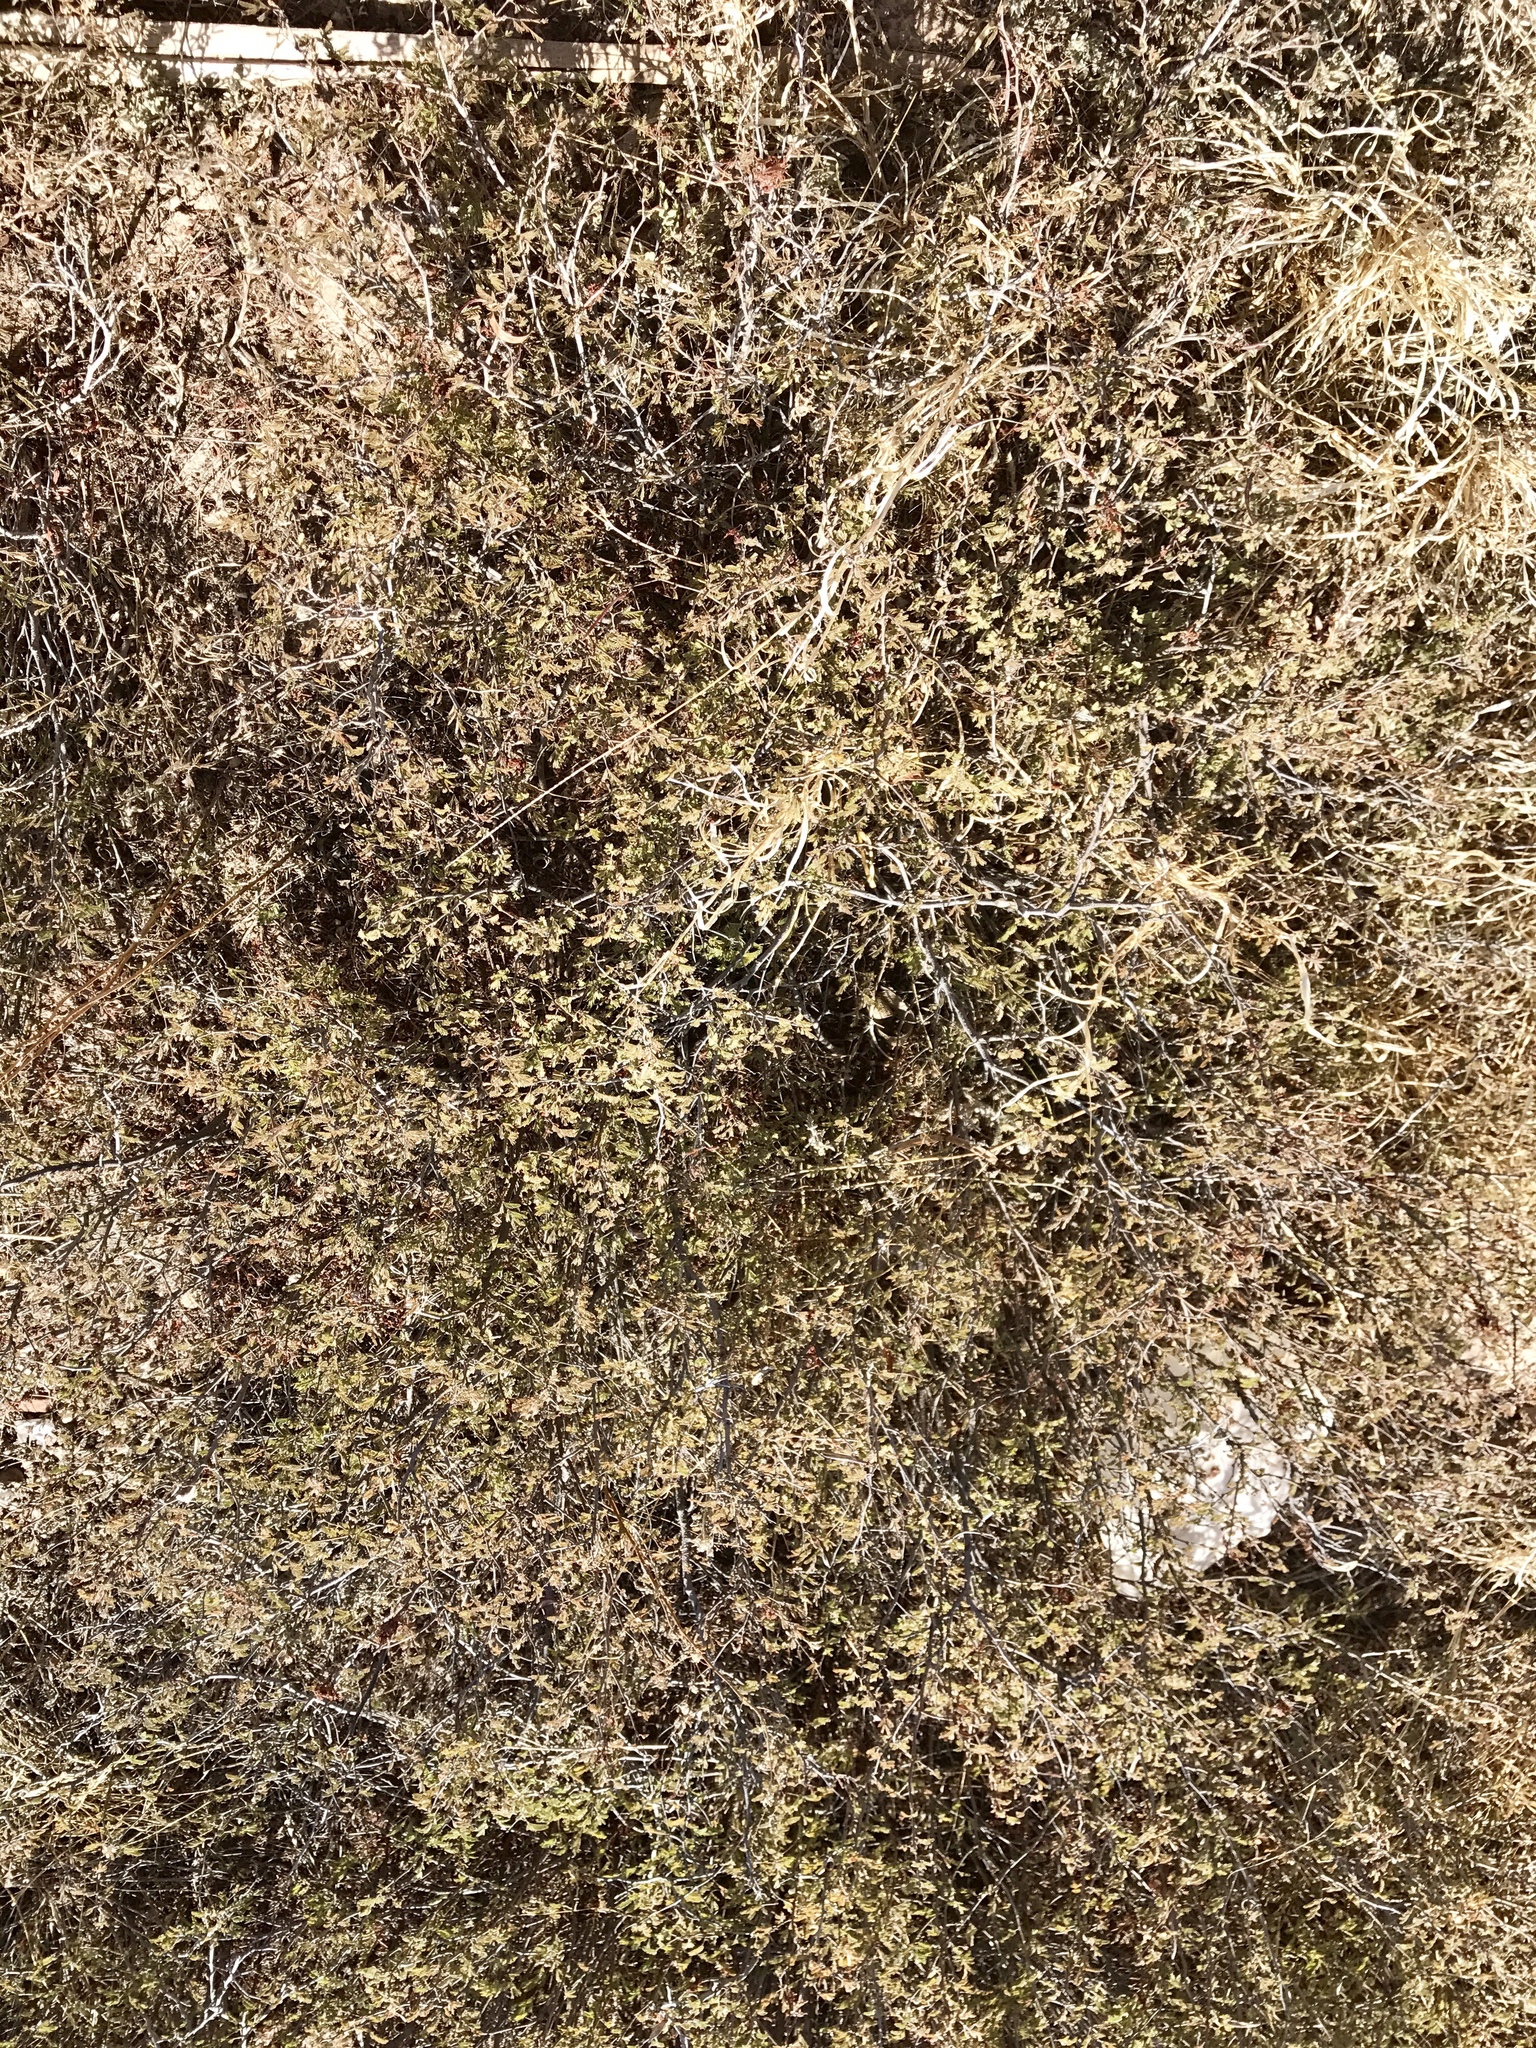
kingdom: Plantae
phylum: Tracheophyta
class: Magnoliopsida
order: Fabales
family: Fabaceae
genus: Calliandra
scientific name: Calliandra eriophylla
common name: Fairy-duster
